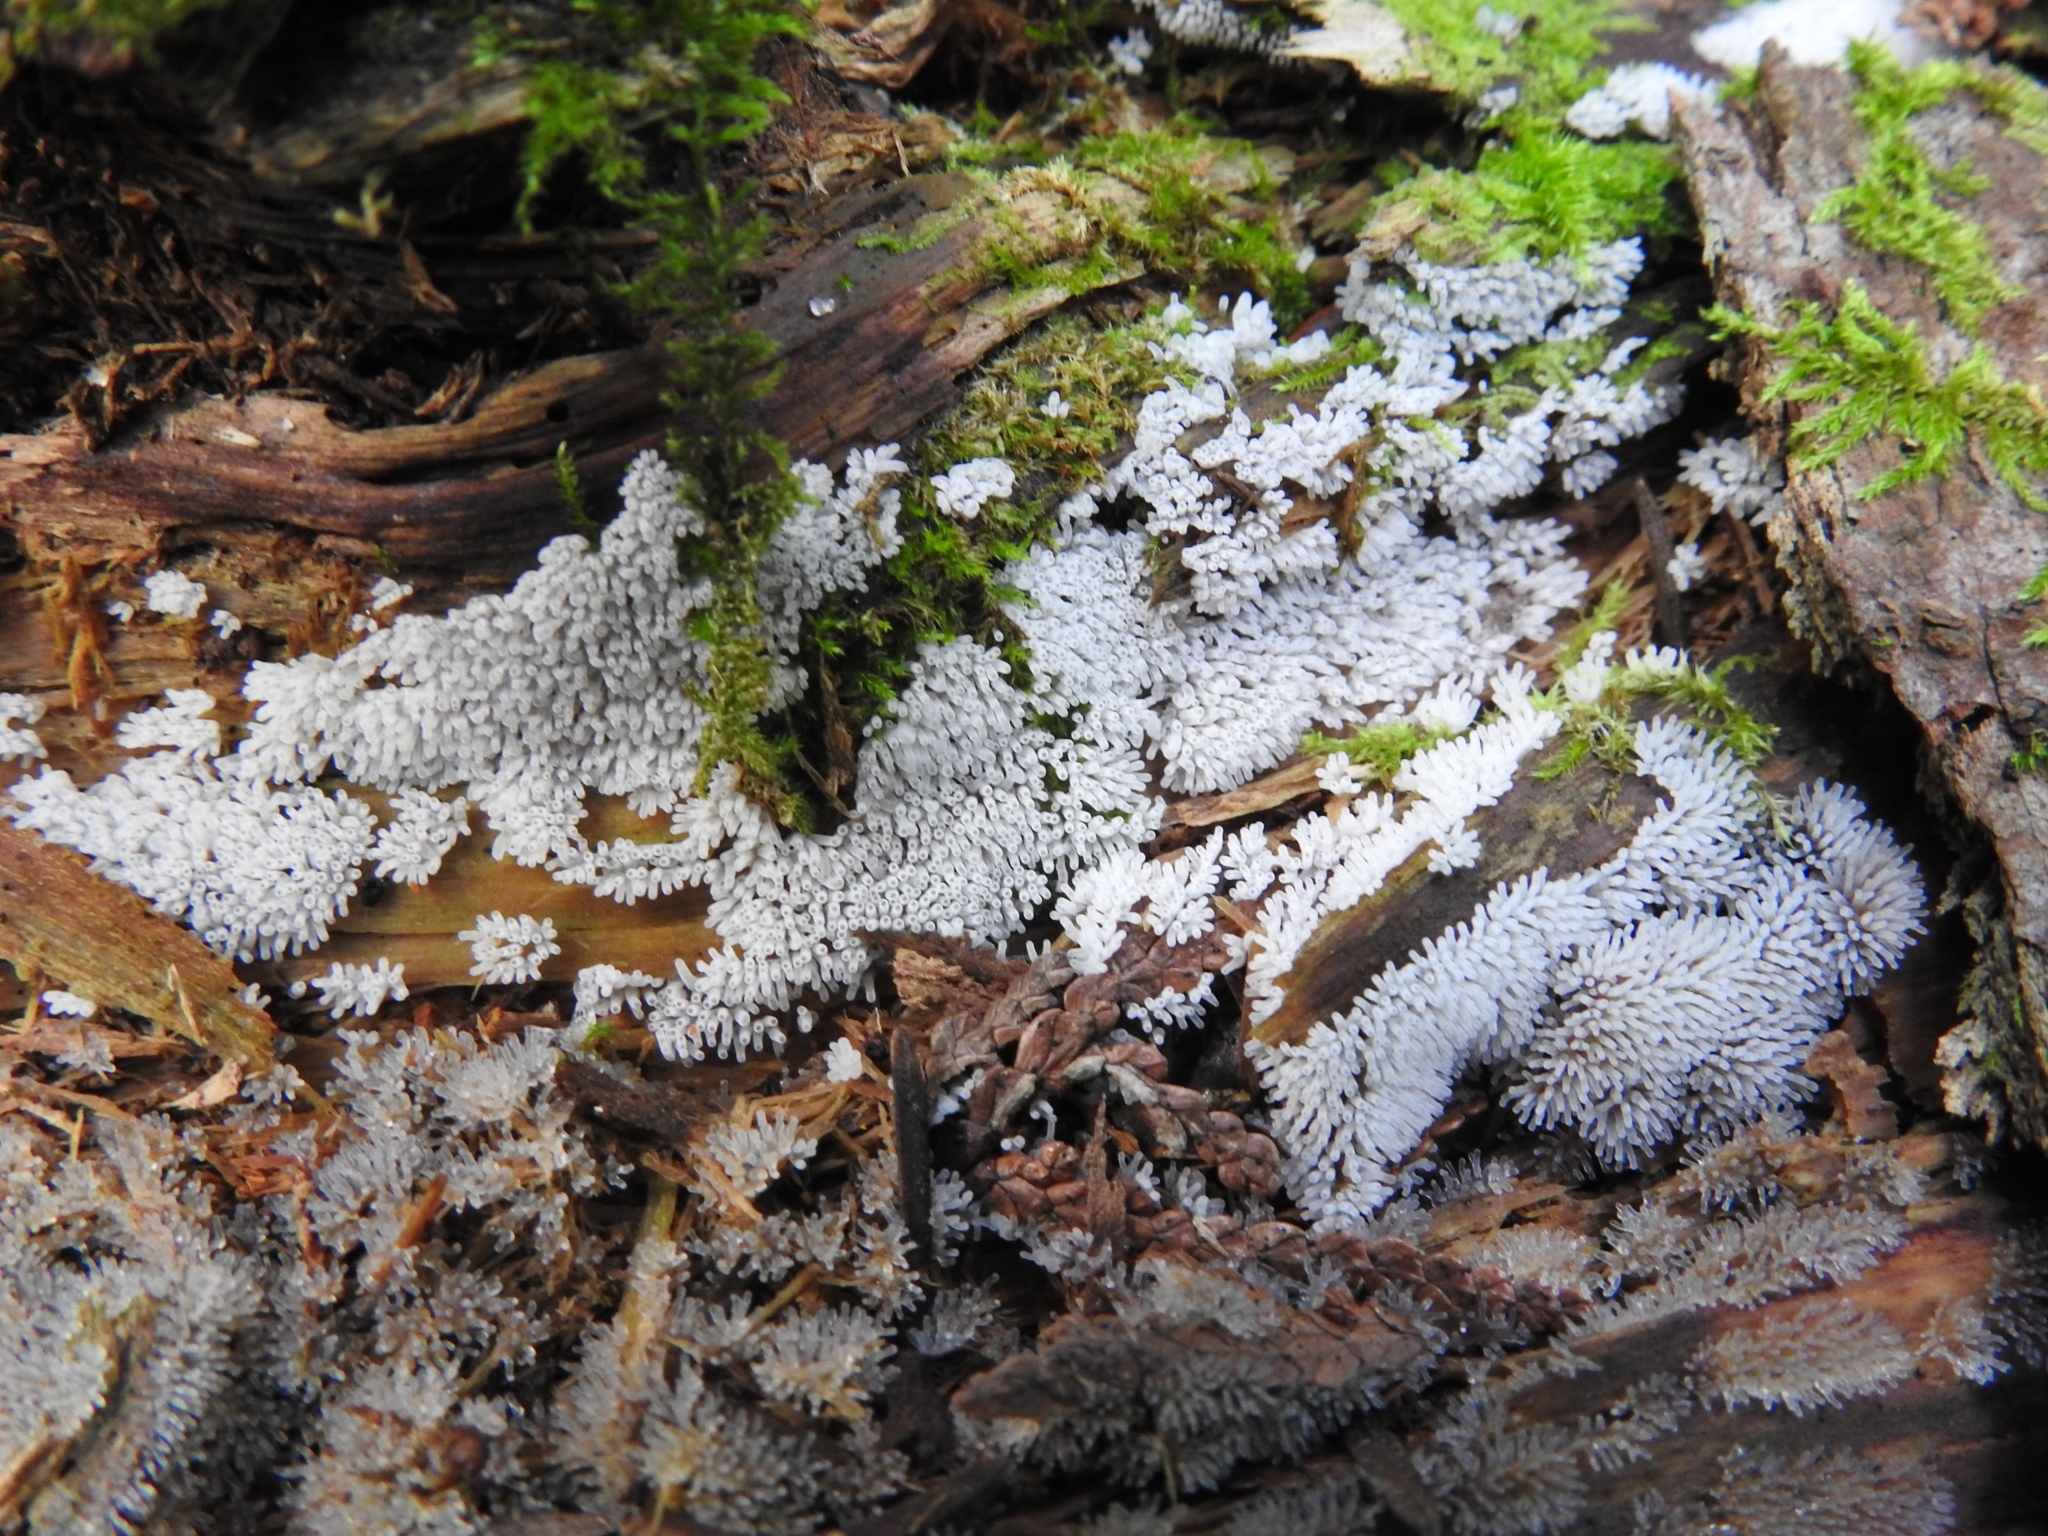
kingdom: Protozoa
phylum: Mycetozoa
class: Protosteliomycetes
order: Ceratiomyxales
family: Ceratiomyxaceae
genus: Ceratiomyxa
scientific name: Ceratiomyxa fruticulosa
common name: Honeycomb coral slime mold
